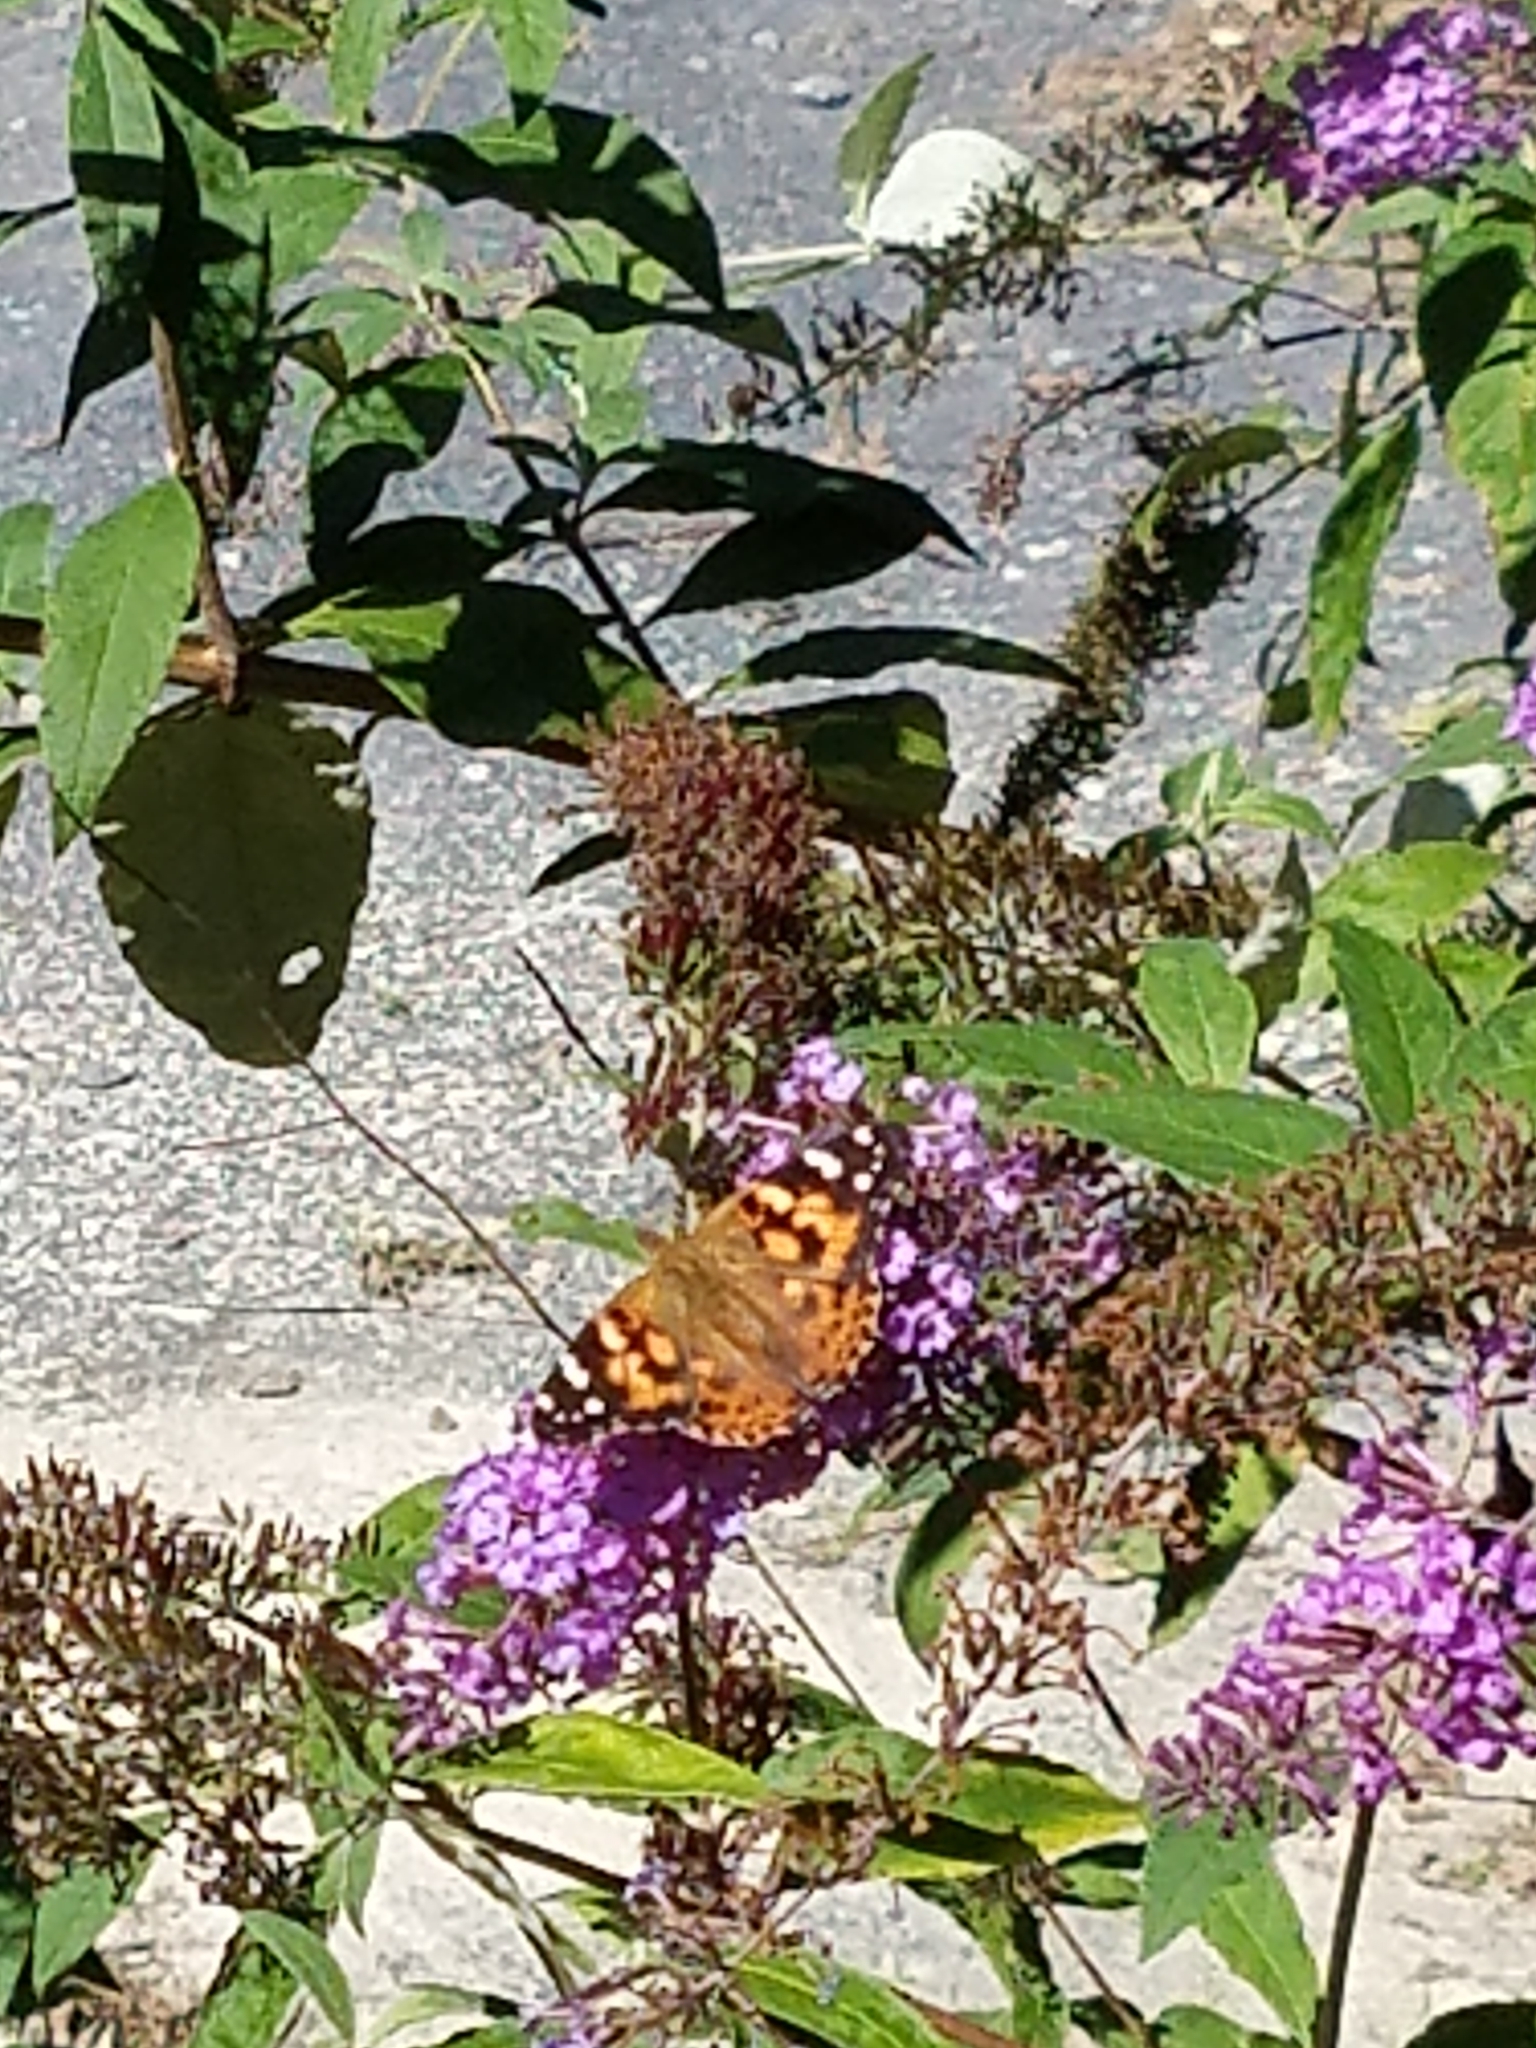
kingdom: Animalia
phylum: Arthropoda
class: Insecta
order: Lepidoptera
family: Nymphalidae
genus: Vanessa
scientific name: Vanessa cardui
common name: Painted lady
